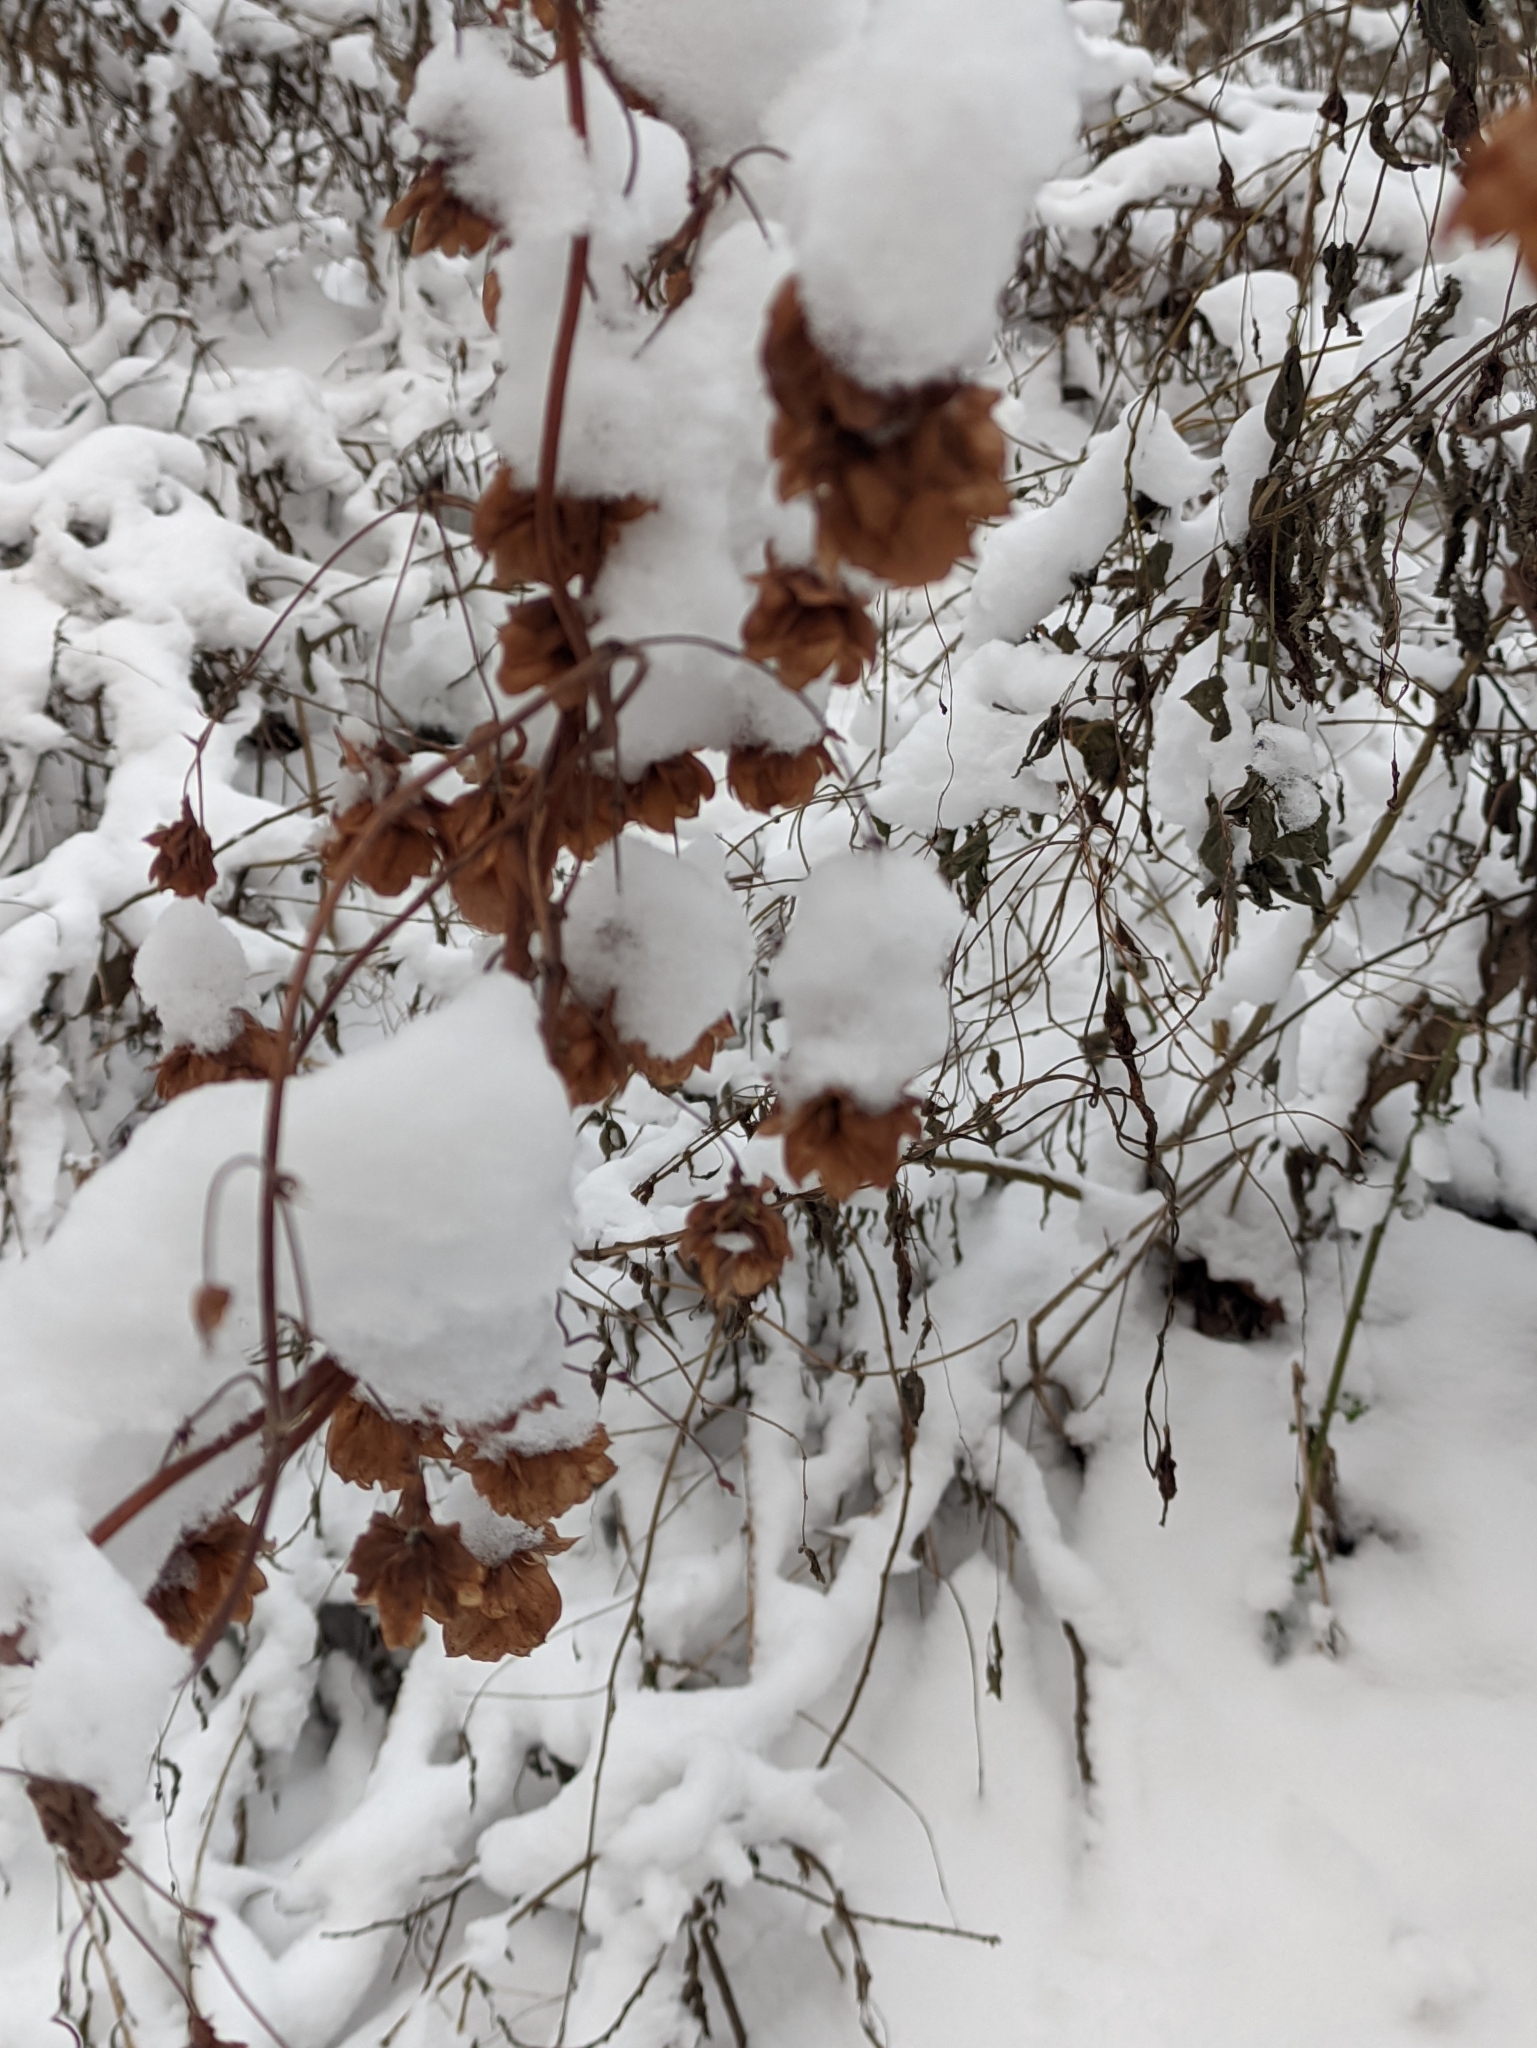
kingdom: Plantae
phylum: Tracheophyta
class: Magnoliopsida
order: Rosales
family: Cannabaceae
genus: Humulus
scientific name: Humulus lupulus
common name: Hop
